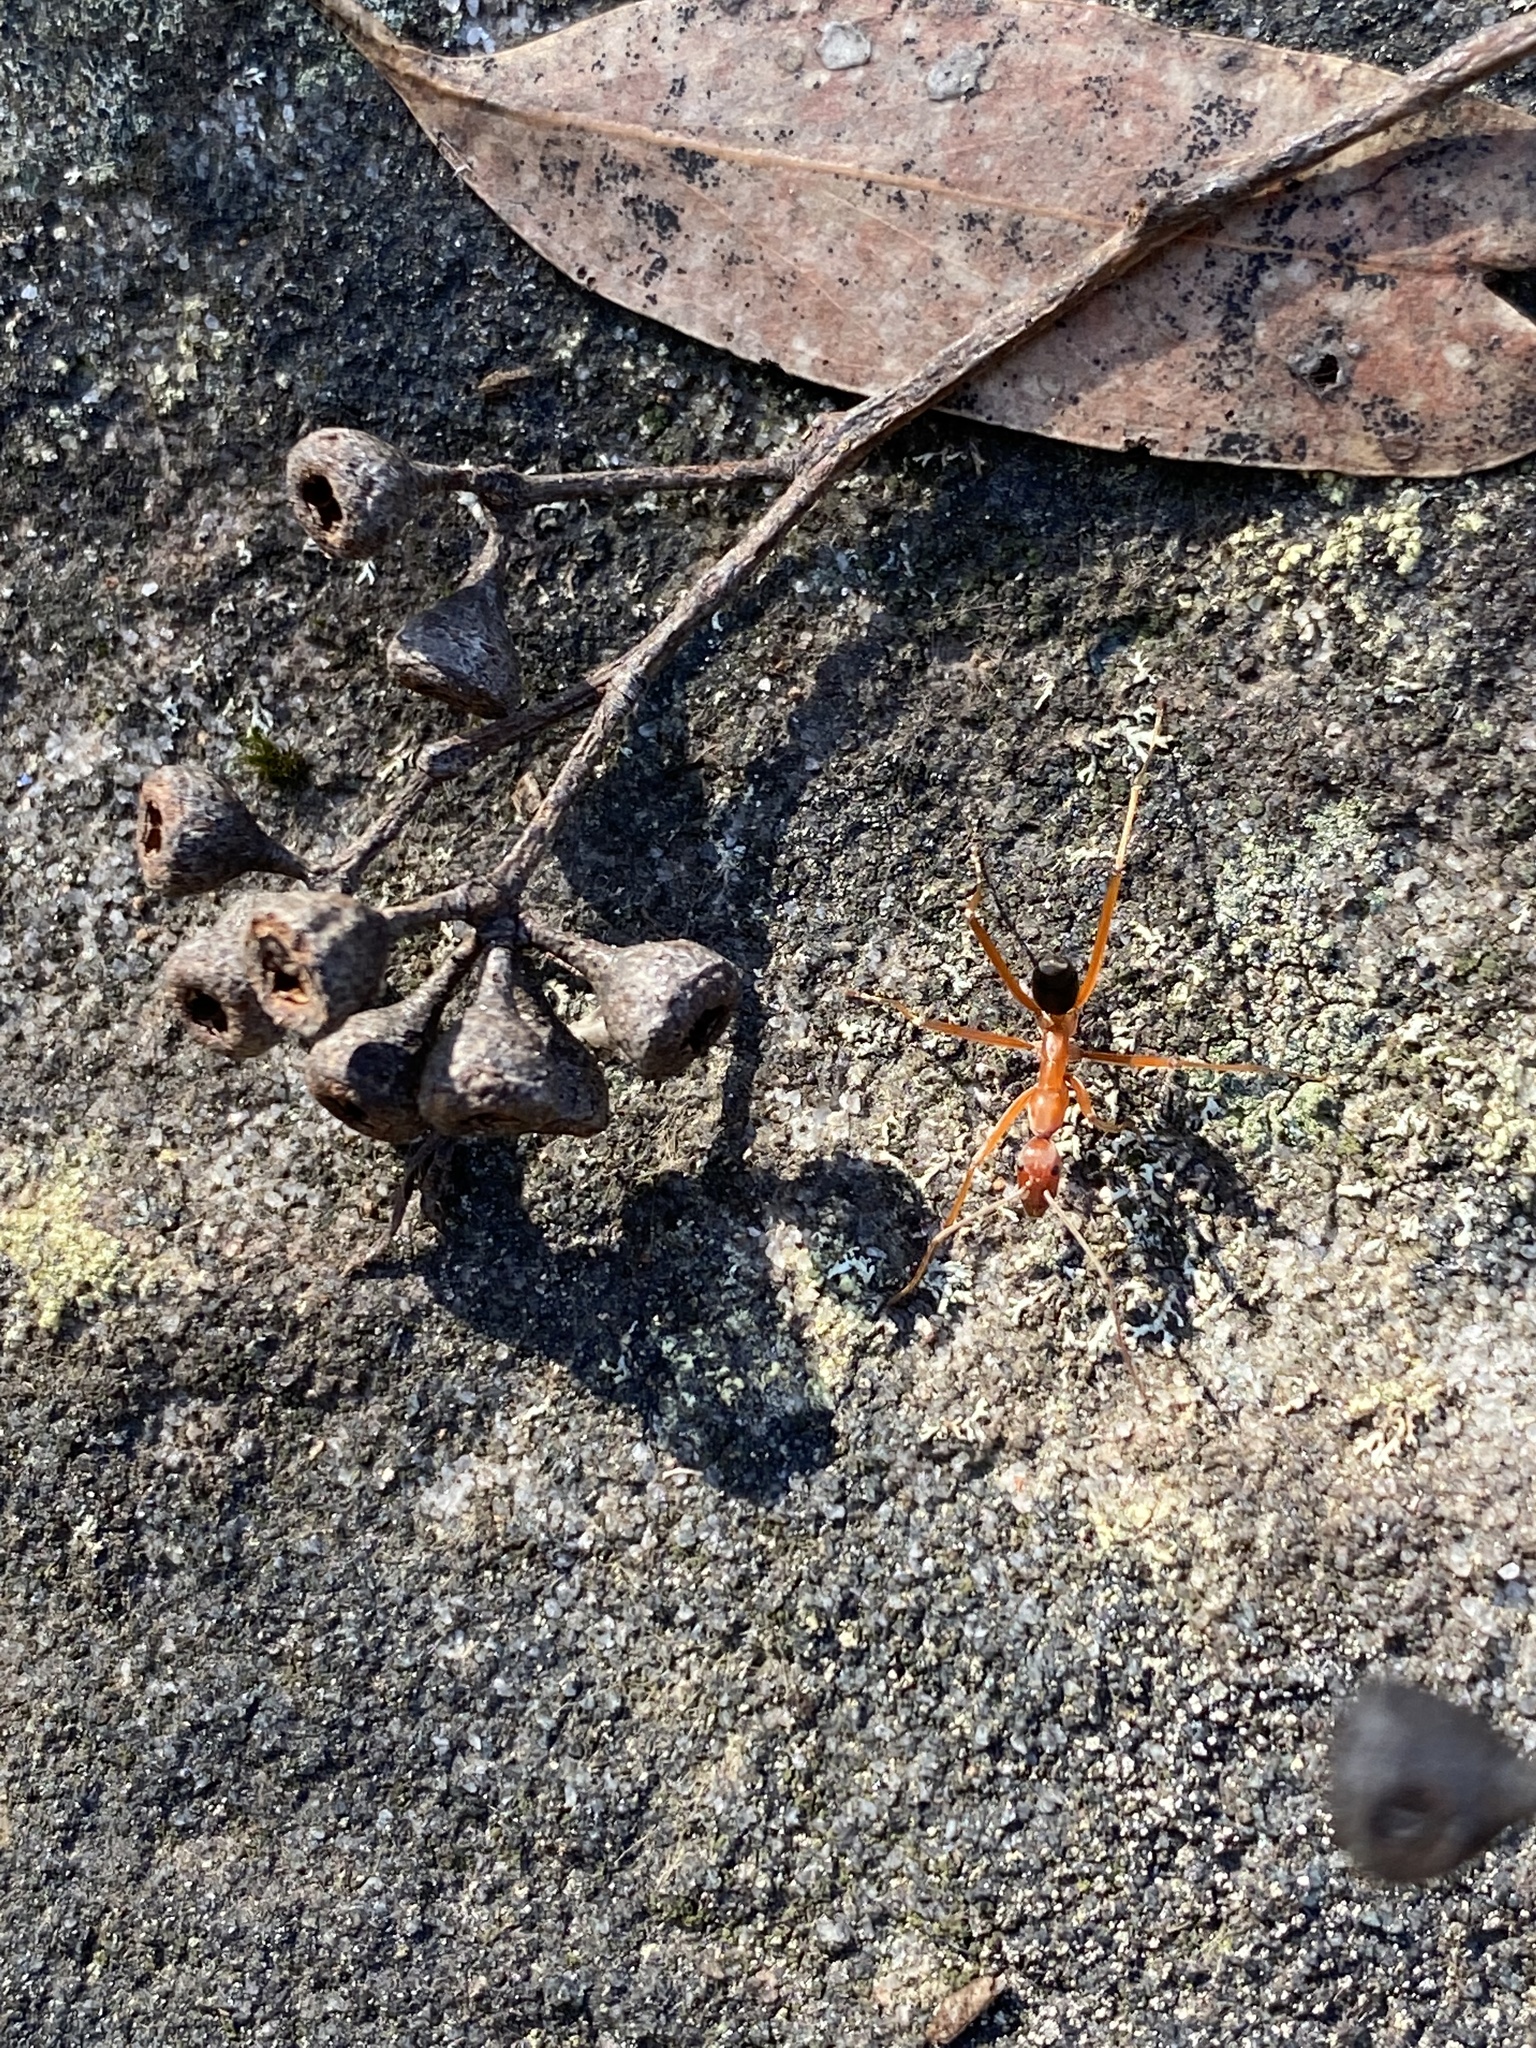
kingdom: Animalia
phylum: Arthropoda
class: Insecta
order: Hymenoptera
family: Formicidae
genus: Leptomyrmex
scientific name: Leptomyrmex nigriventris
